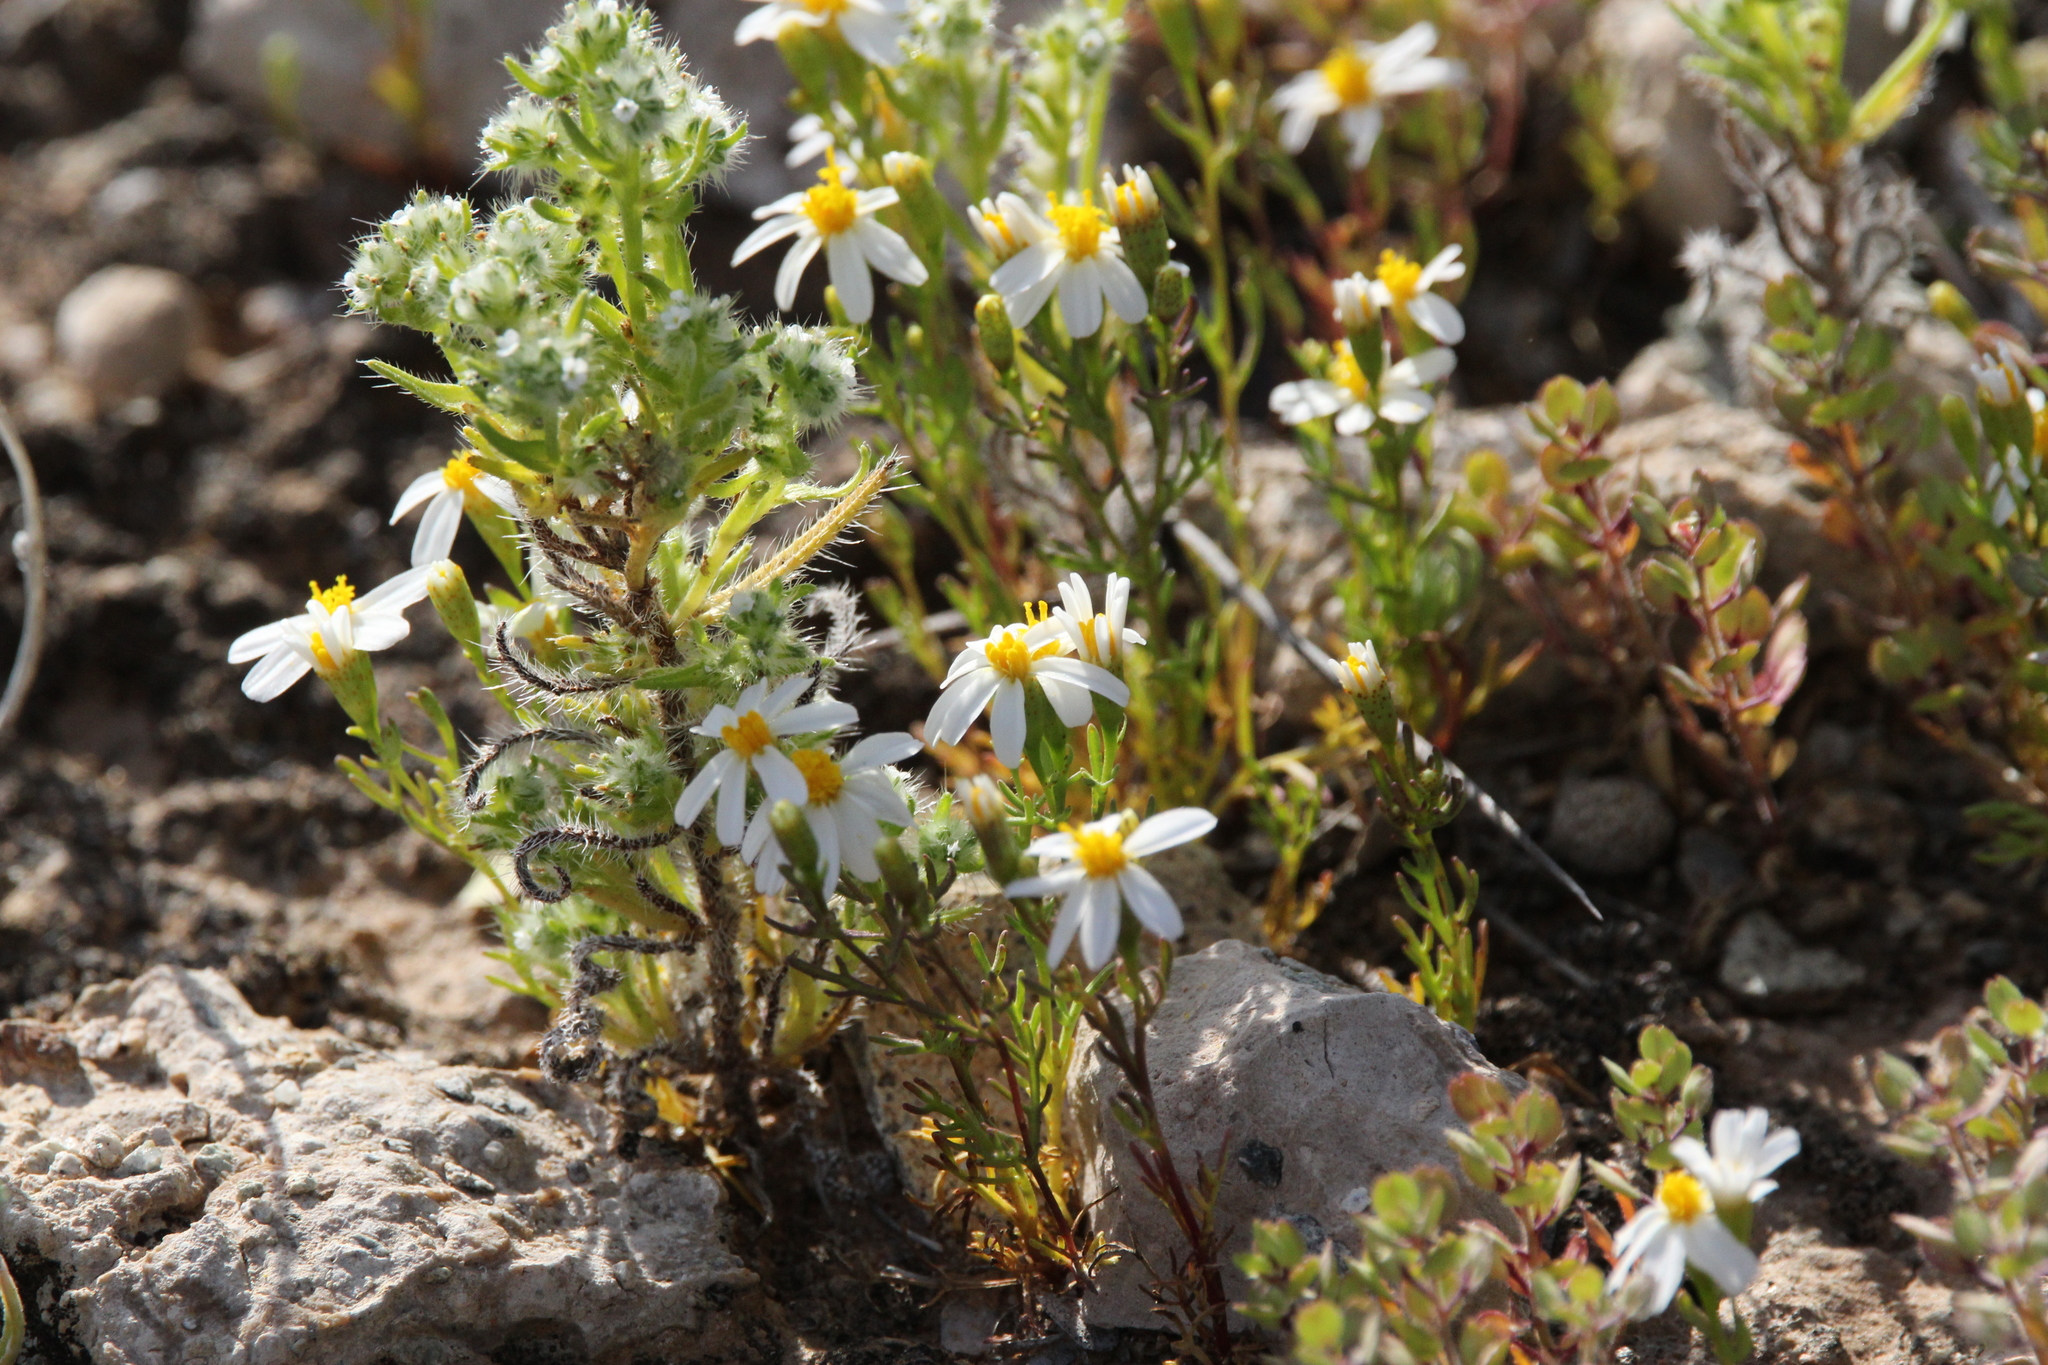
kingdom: Plantae
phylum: Tracheophyta
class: Magnoliopsida
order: Asterales
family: Asteraceae
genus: Thymophylla
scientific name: Thymophylla concinna
